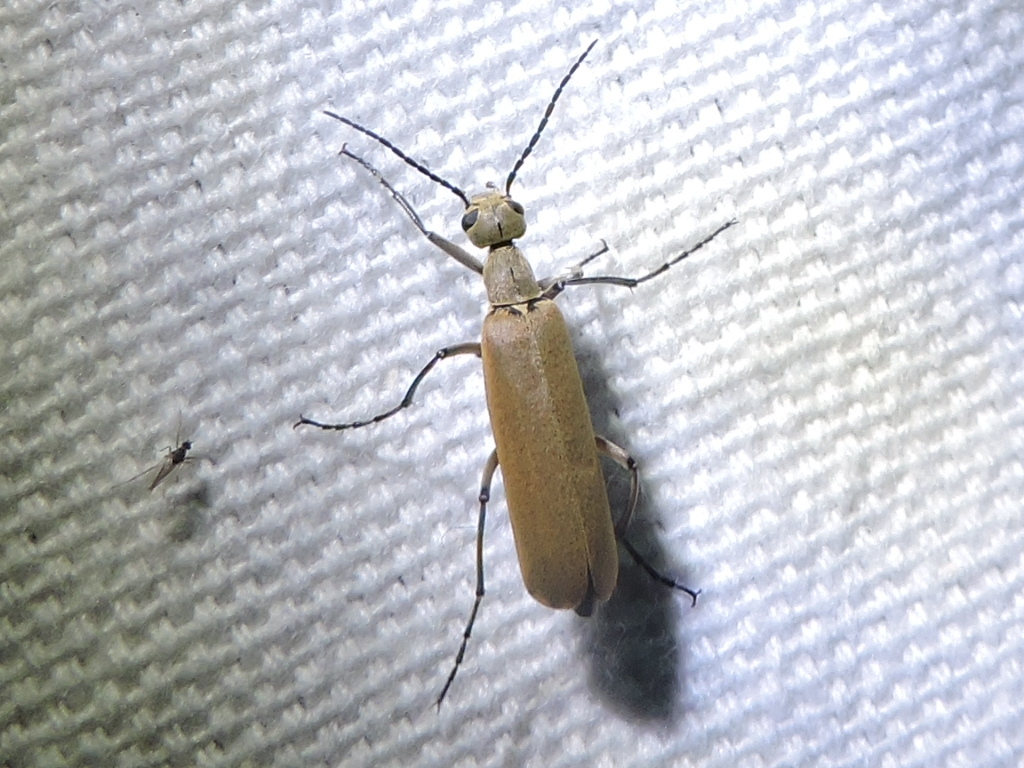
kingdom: Animalia
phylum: Arthropoda
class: Insecta
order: Coleoptera
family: Meloidae
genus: Epicauta
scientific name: Epicauta polingi
